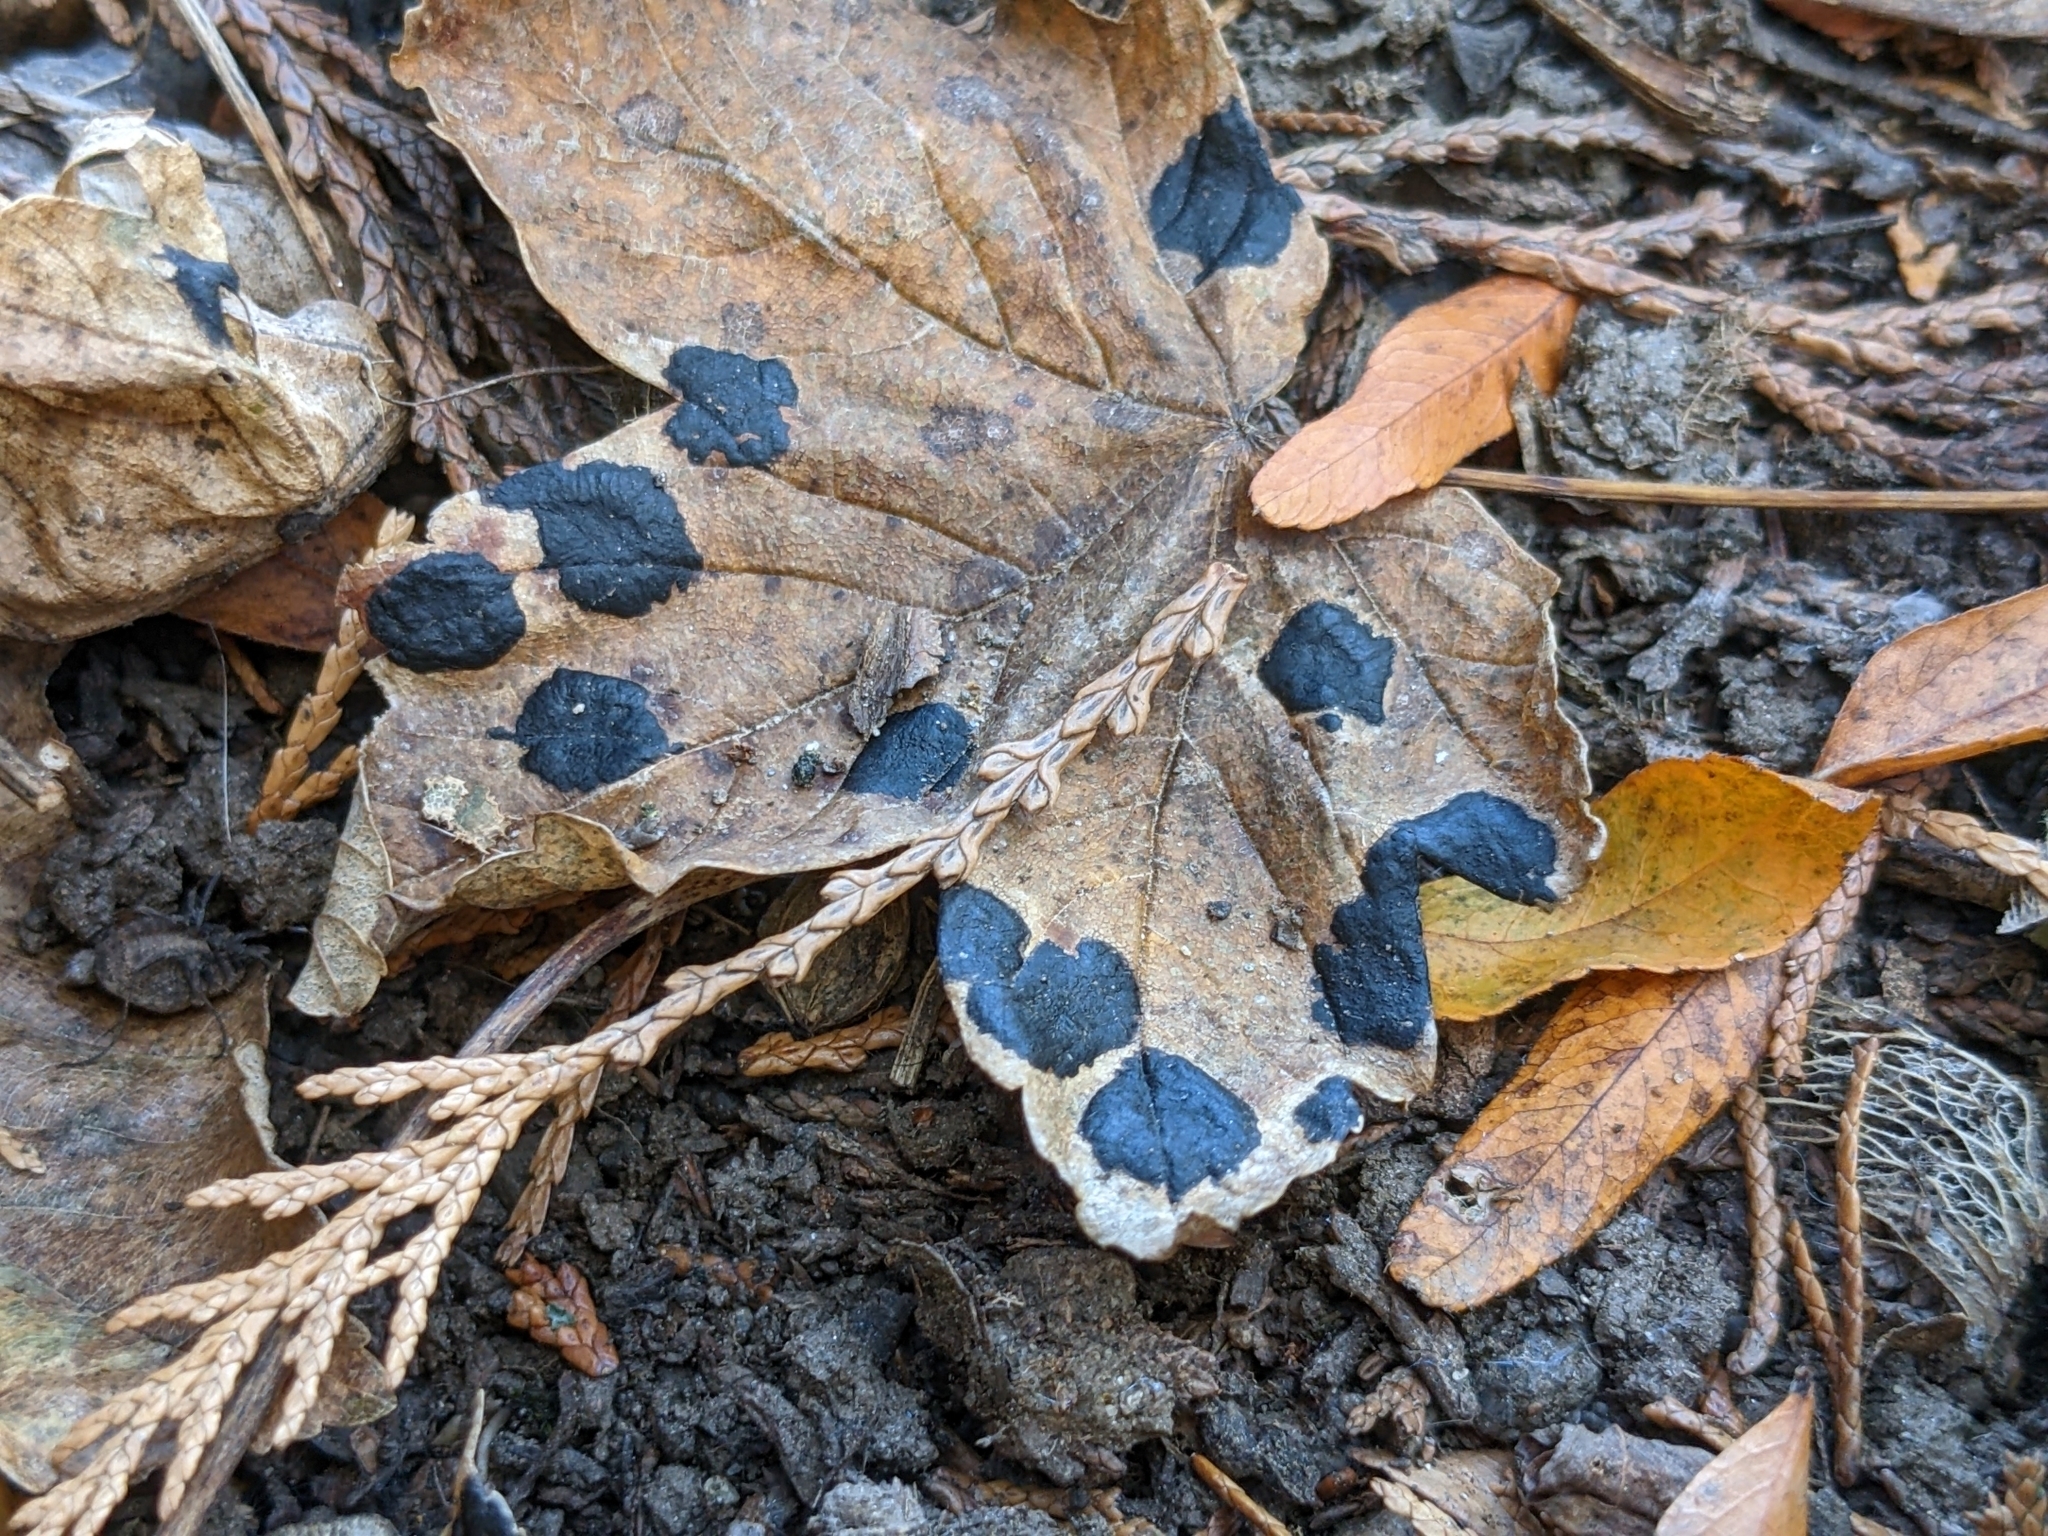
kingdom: Fungi
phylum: Ascomycota
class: Leotiomycetes
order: Rhytismatales
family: Rhytismataceae
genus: Rhytisma
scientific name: Rhytisma acerinum
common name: European tar spot
